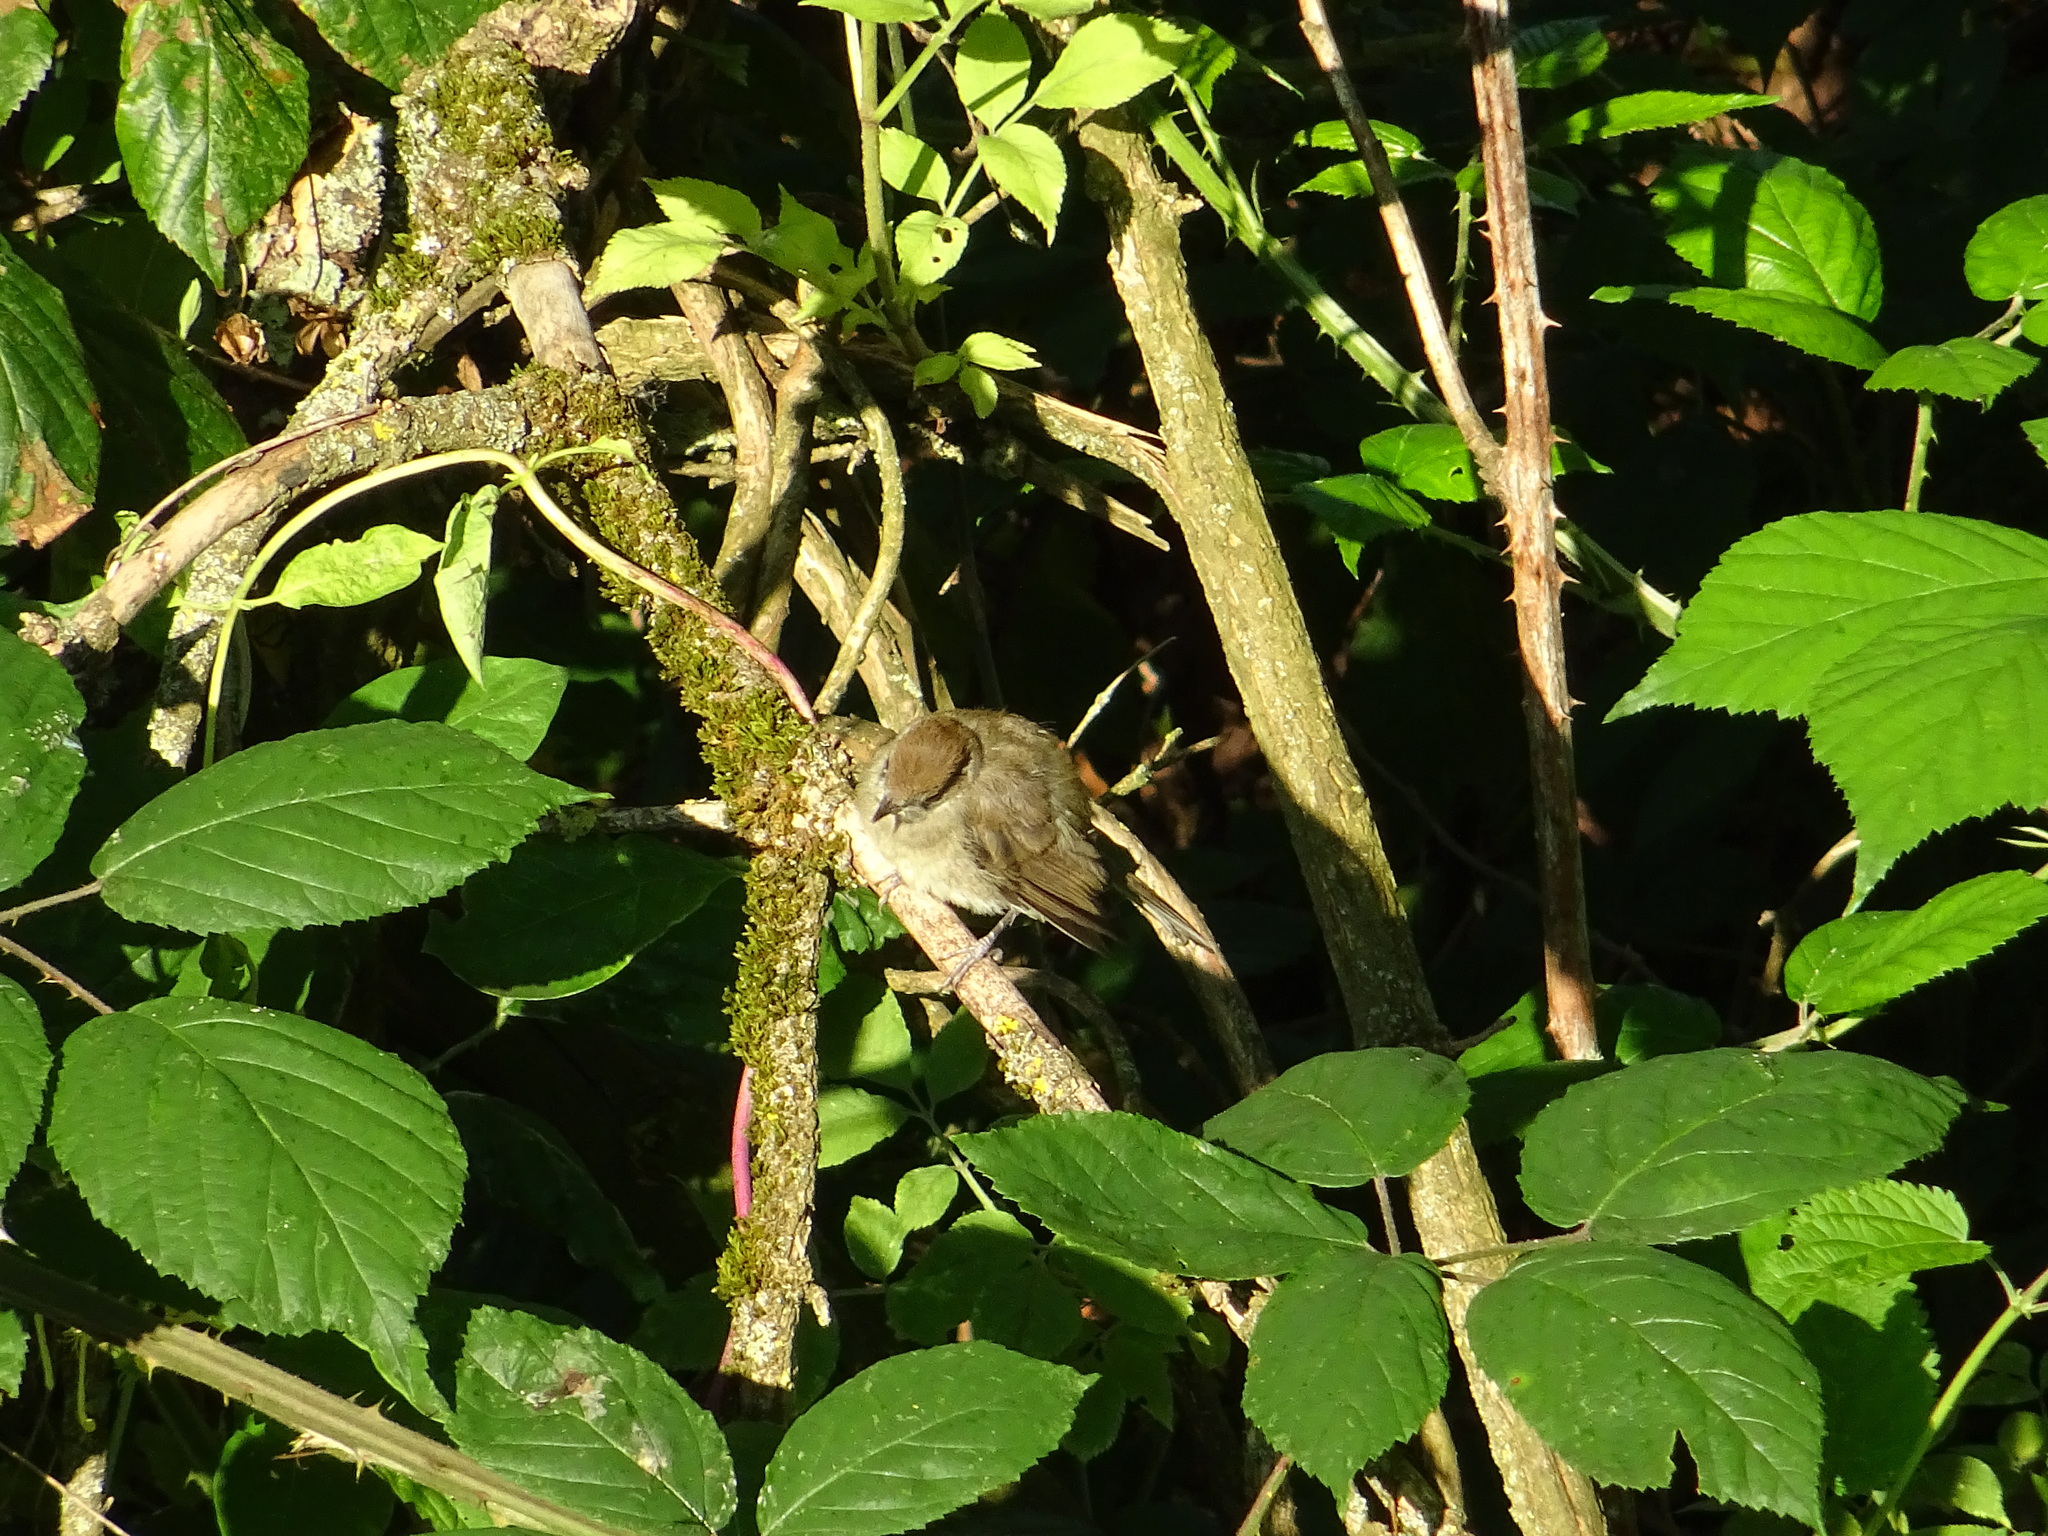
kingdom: Animalia
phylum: Chordata
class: Aves
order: Passeriformes
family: Sylviidae
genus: Sylvia
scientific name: Sylvia atricapilla
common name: Eurasian blackcap
